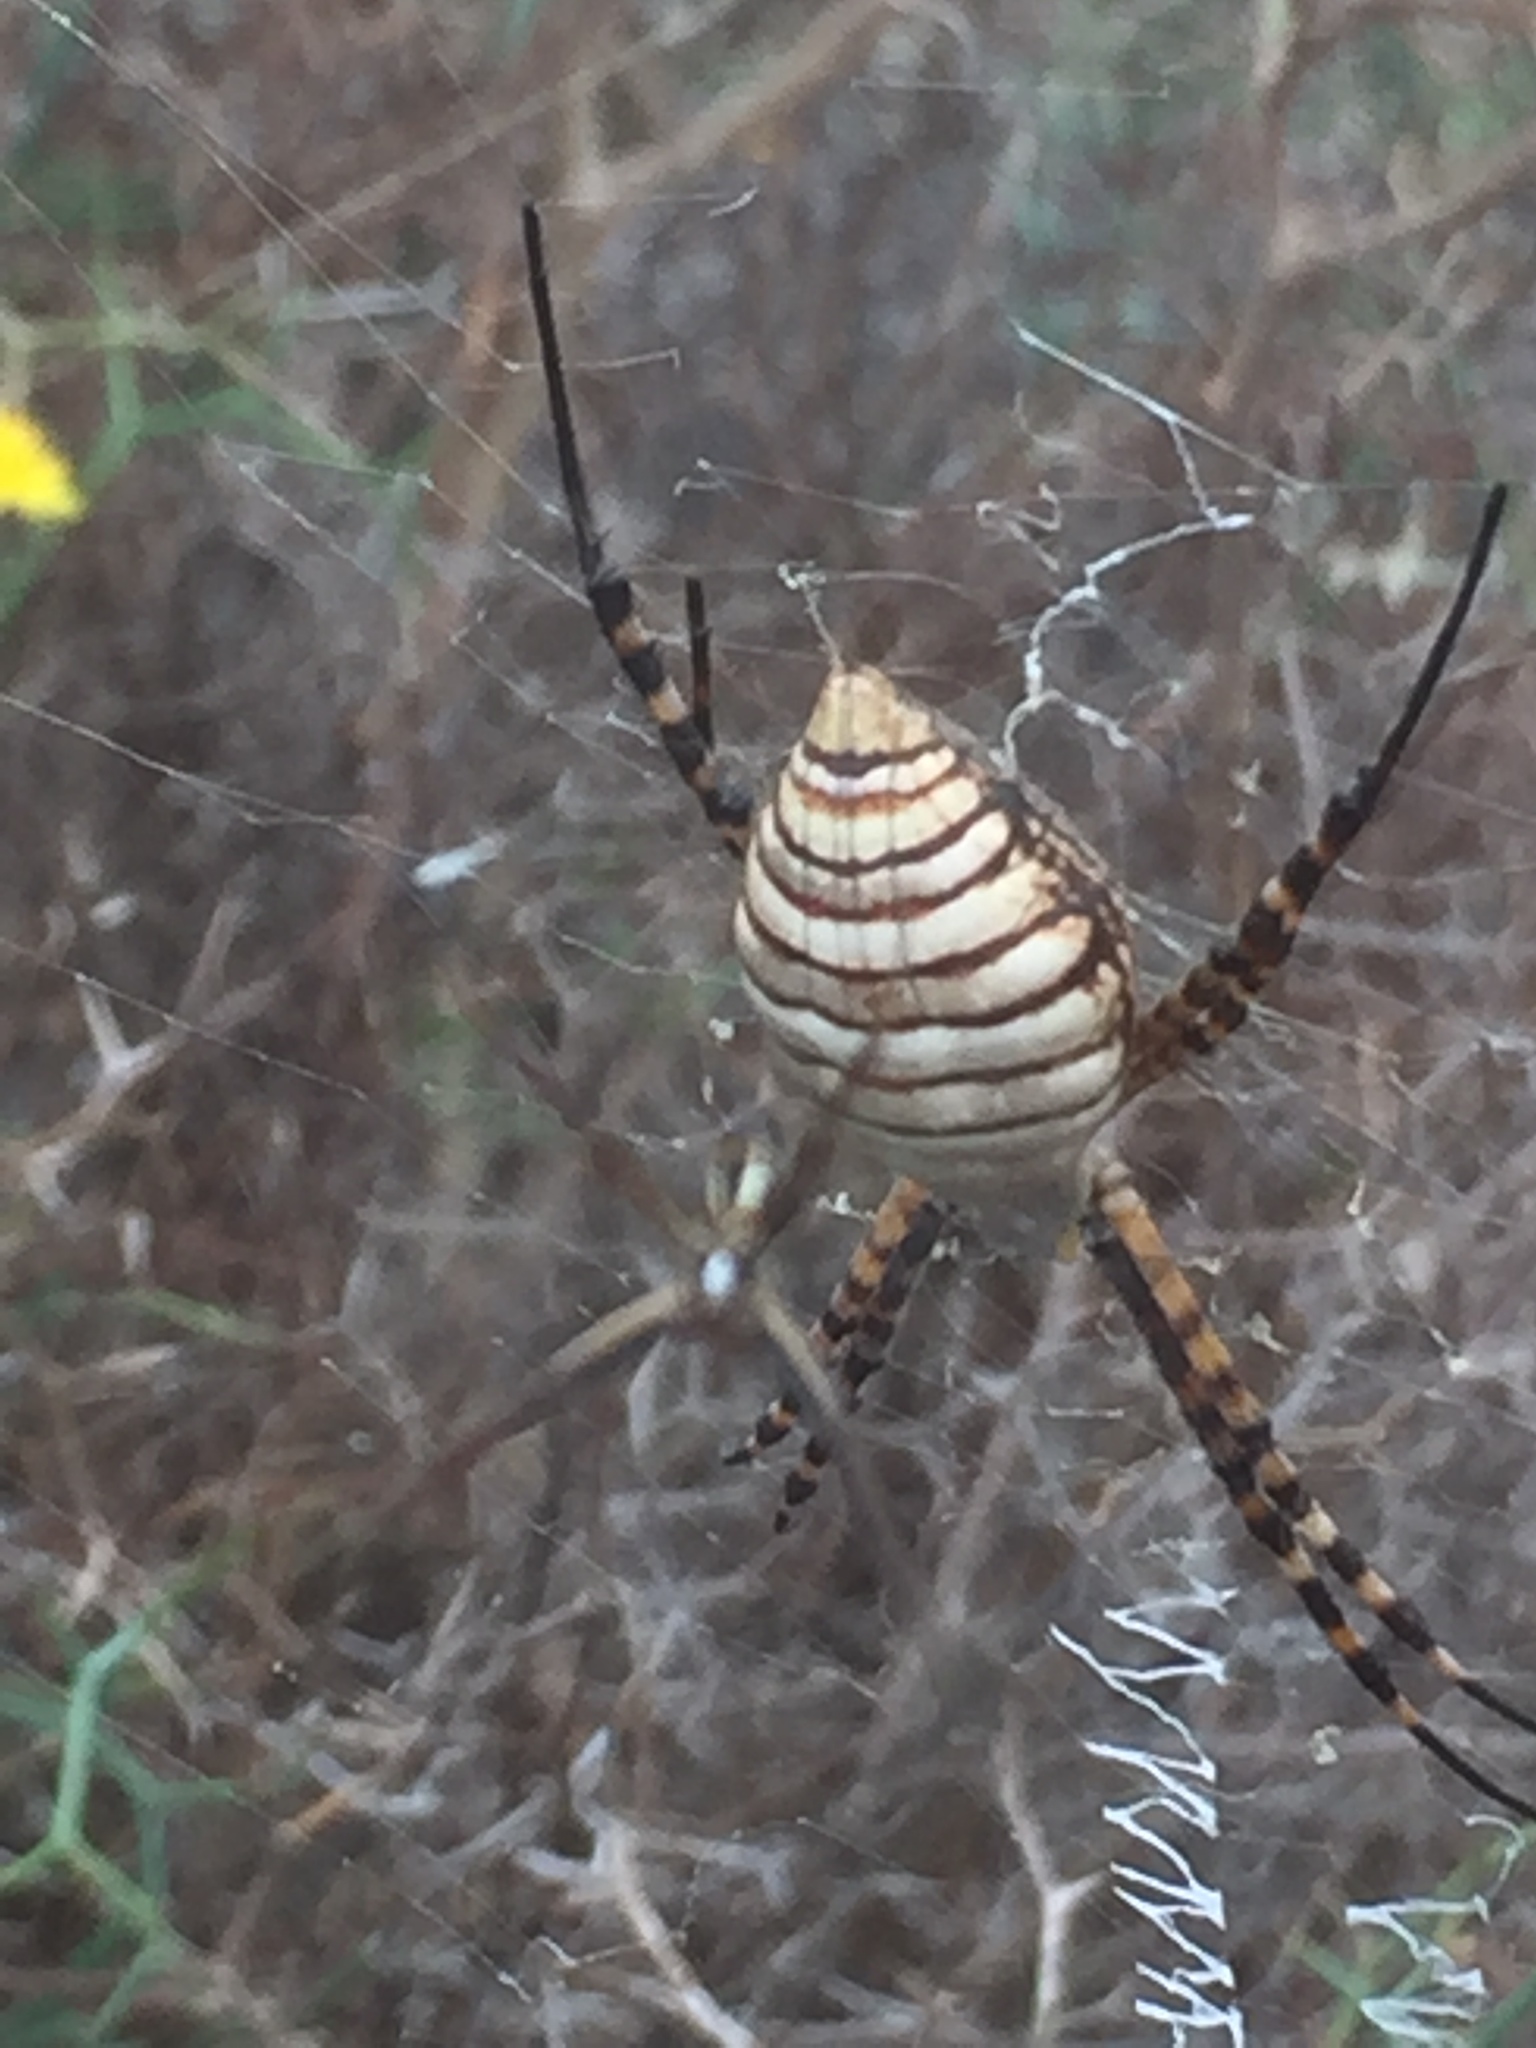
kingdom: Animalia
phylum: Arthropoda
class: Arachnida
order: Araneae
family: Araneidae
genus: Argiope
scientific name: Argiope trifasciata
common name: Banded garden spider
